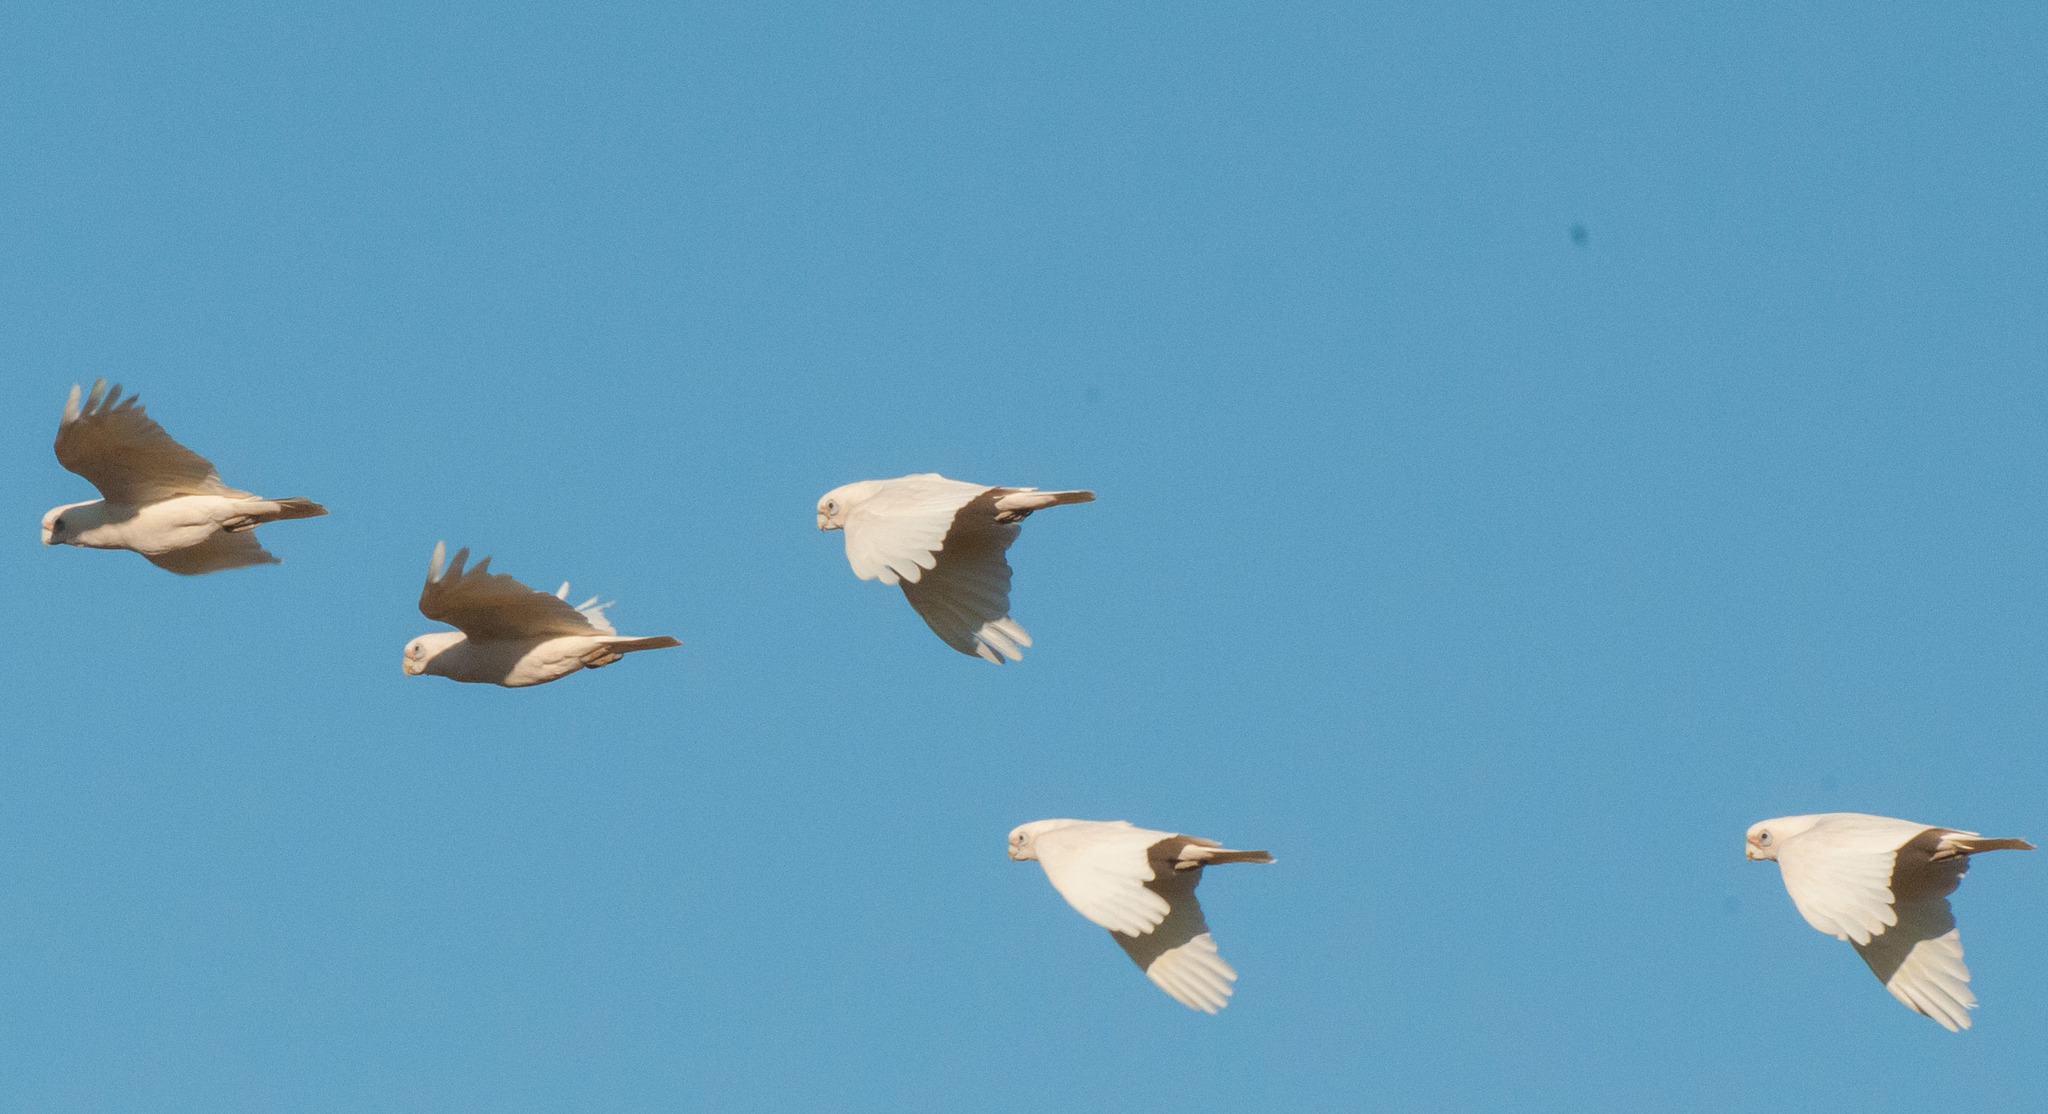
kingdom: Animalia
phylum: Chordata
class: Aves
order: Psittaciformes
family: Psittacidae
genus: Cacatua
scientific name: Cacatua sanguinea
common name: Little corella
